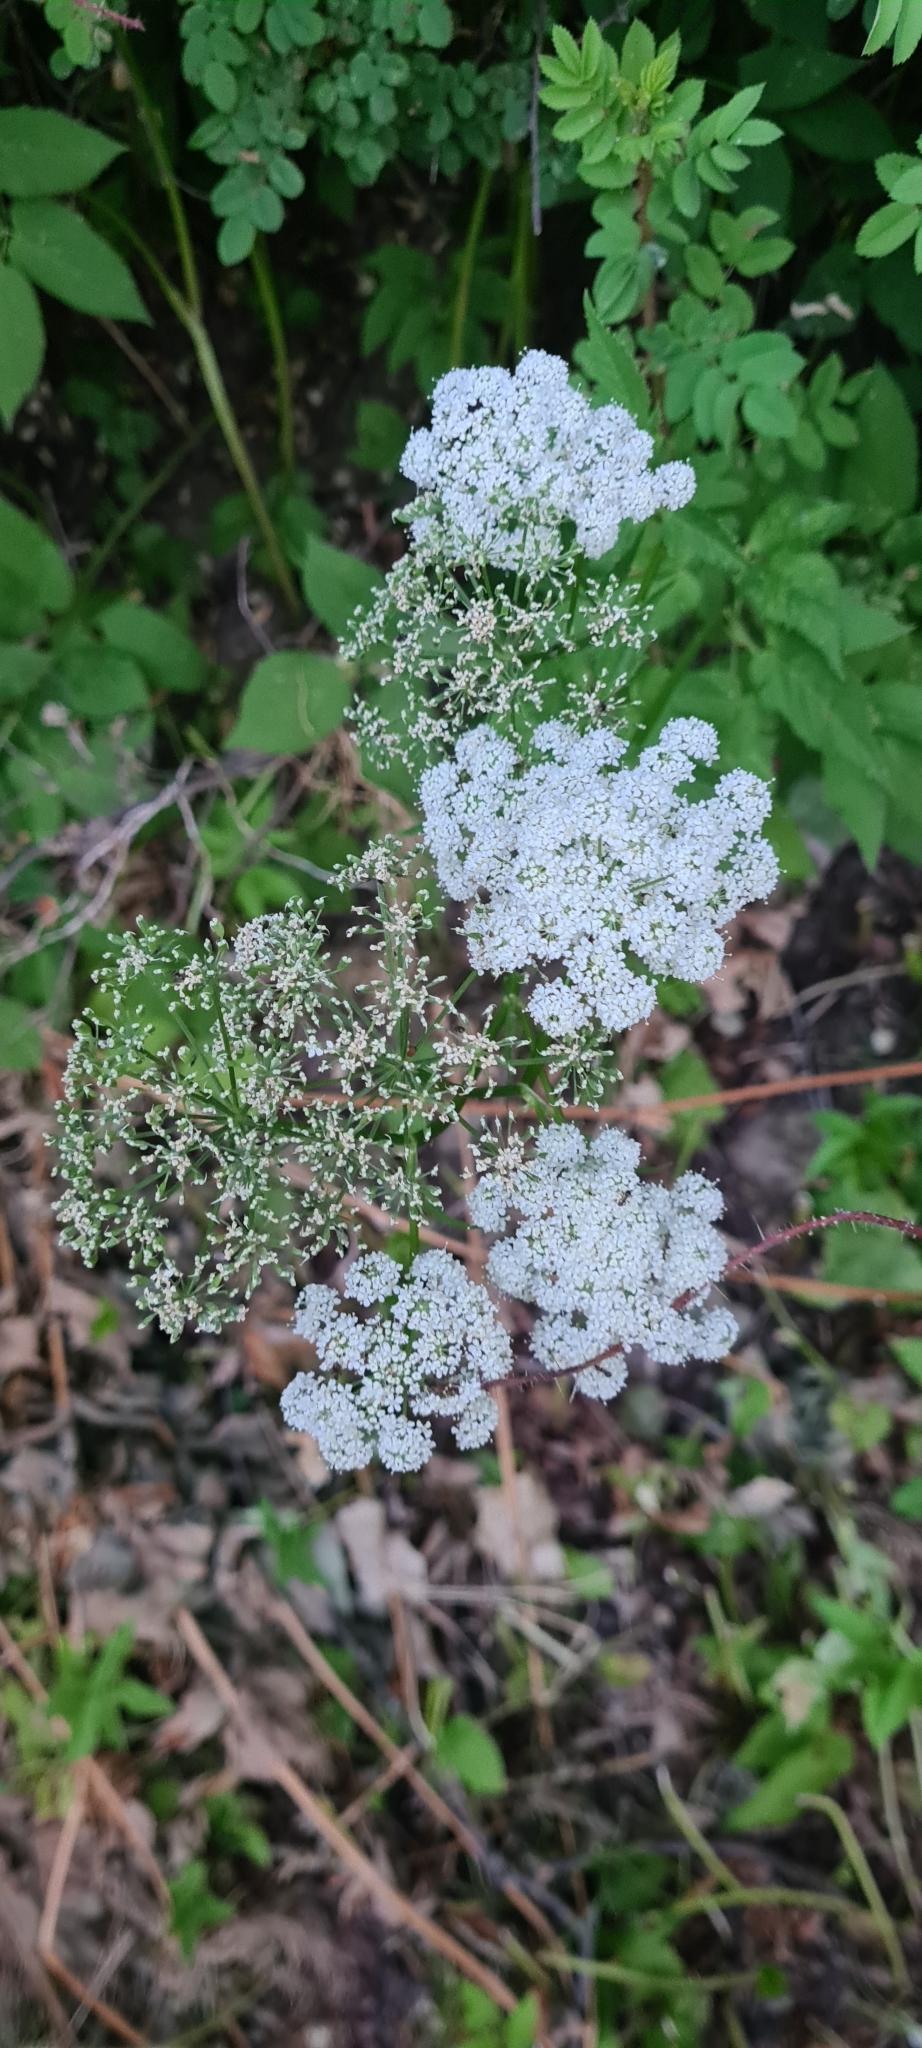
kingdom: Plantae
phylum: Tracheophyta
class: Magnoliopsida
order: Apiales
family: Apiaceae
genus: Aegopodium
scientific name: Aegopodium podagraria
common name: Ground-elder
